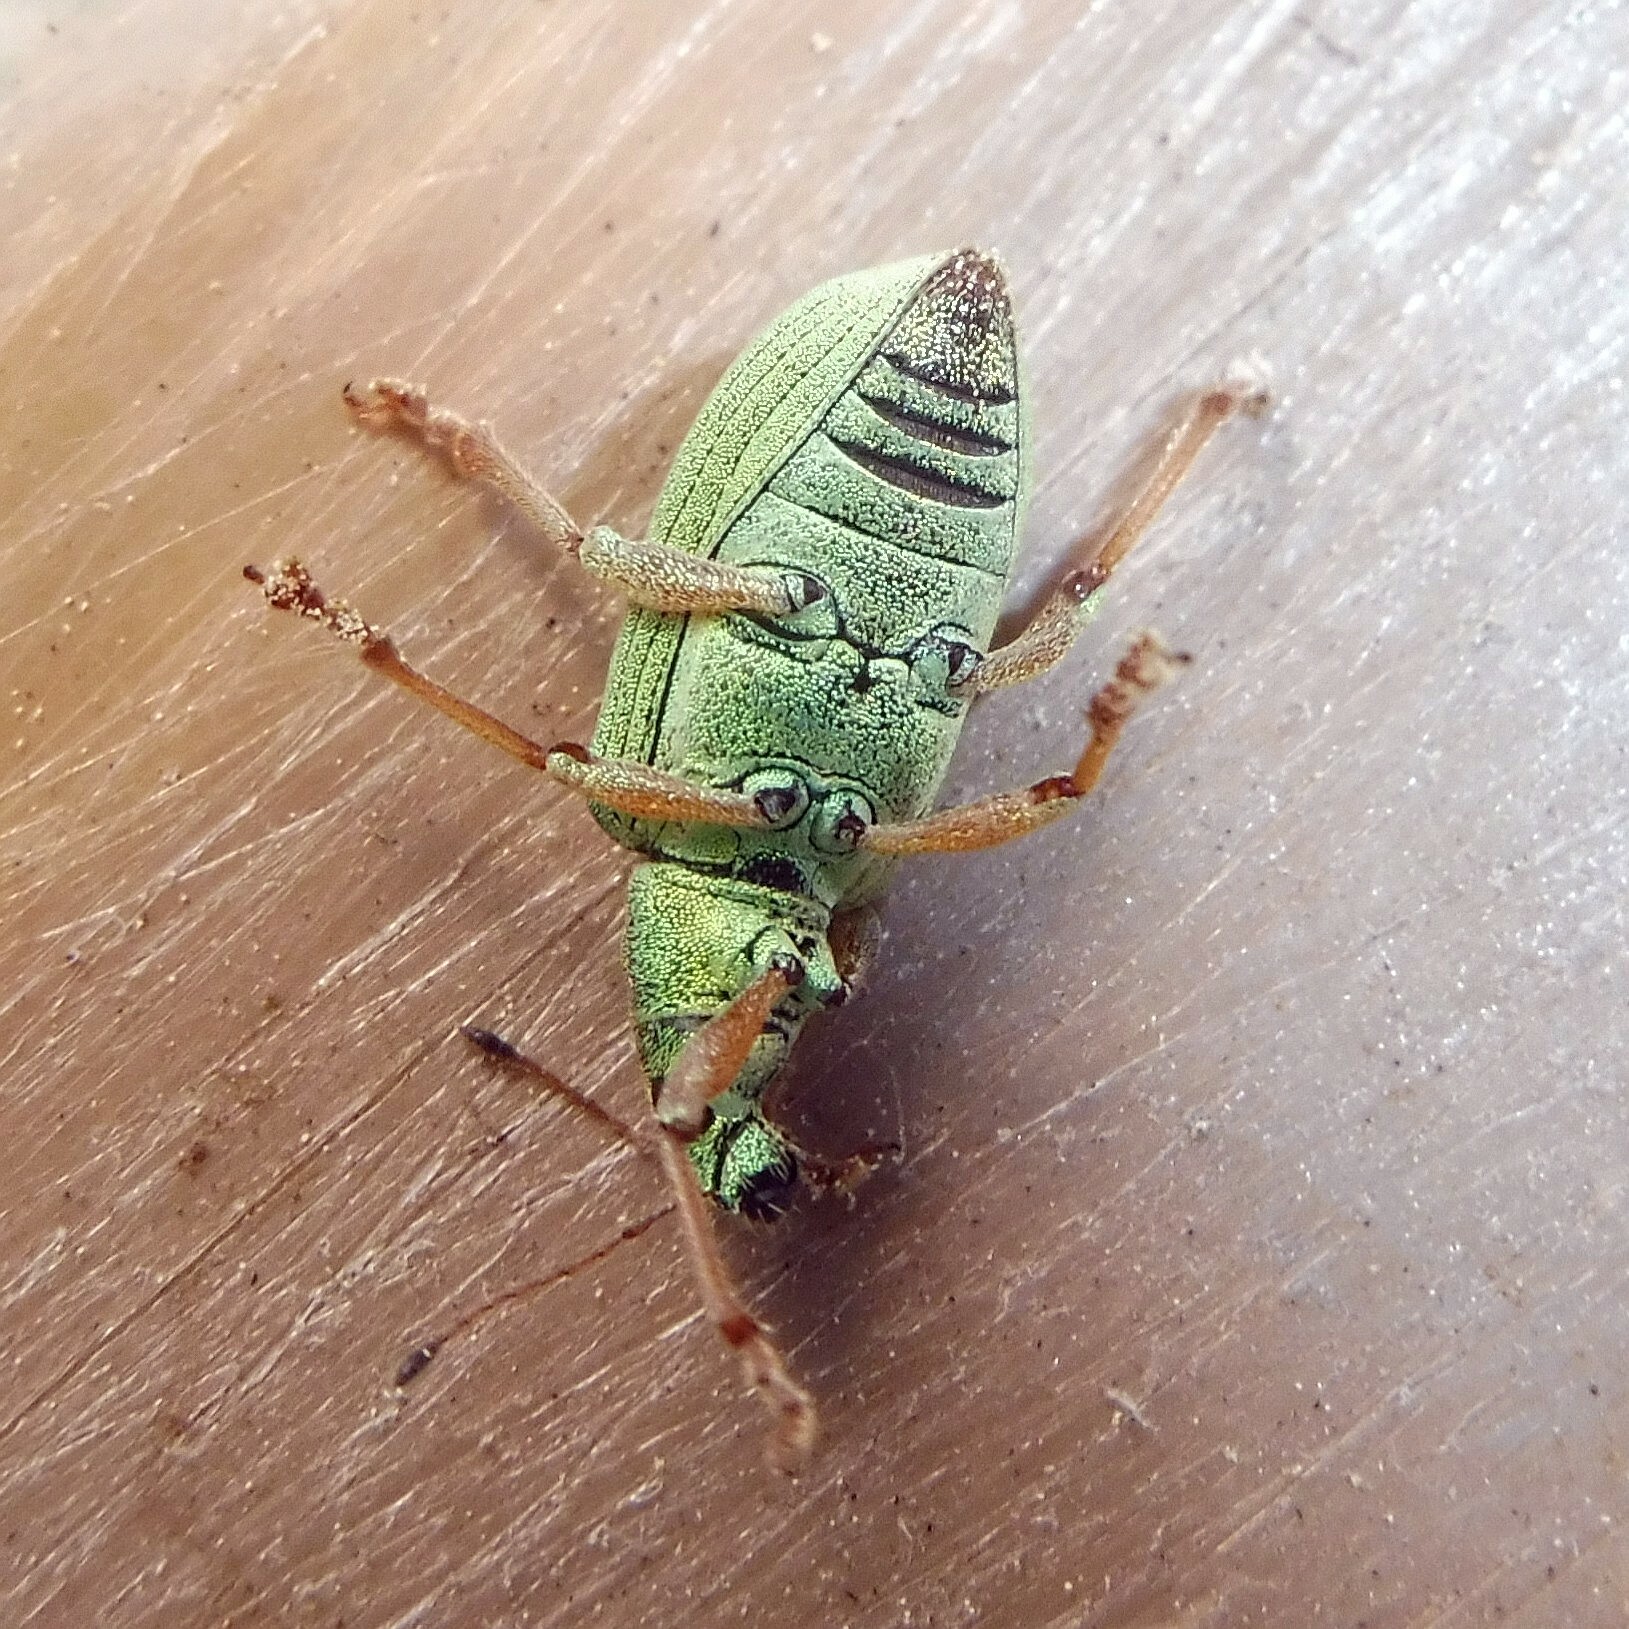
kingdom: Animalia
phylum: Arthropoda
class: Insecta
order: Coleoptera
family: Curculionidae
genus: Polydrusus
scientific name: Polydrusus formosus
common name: Weevil
